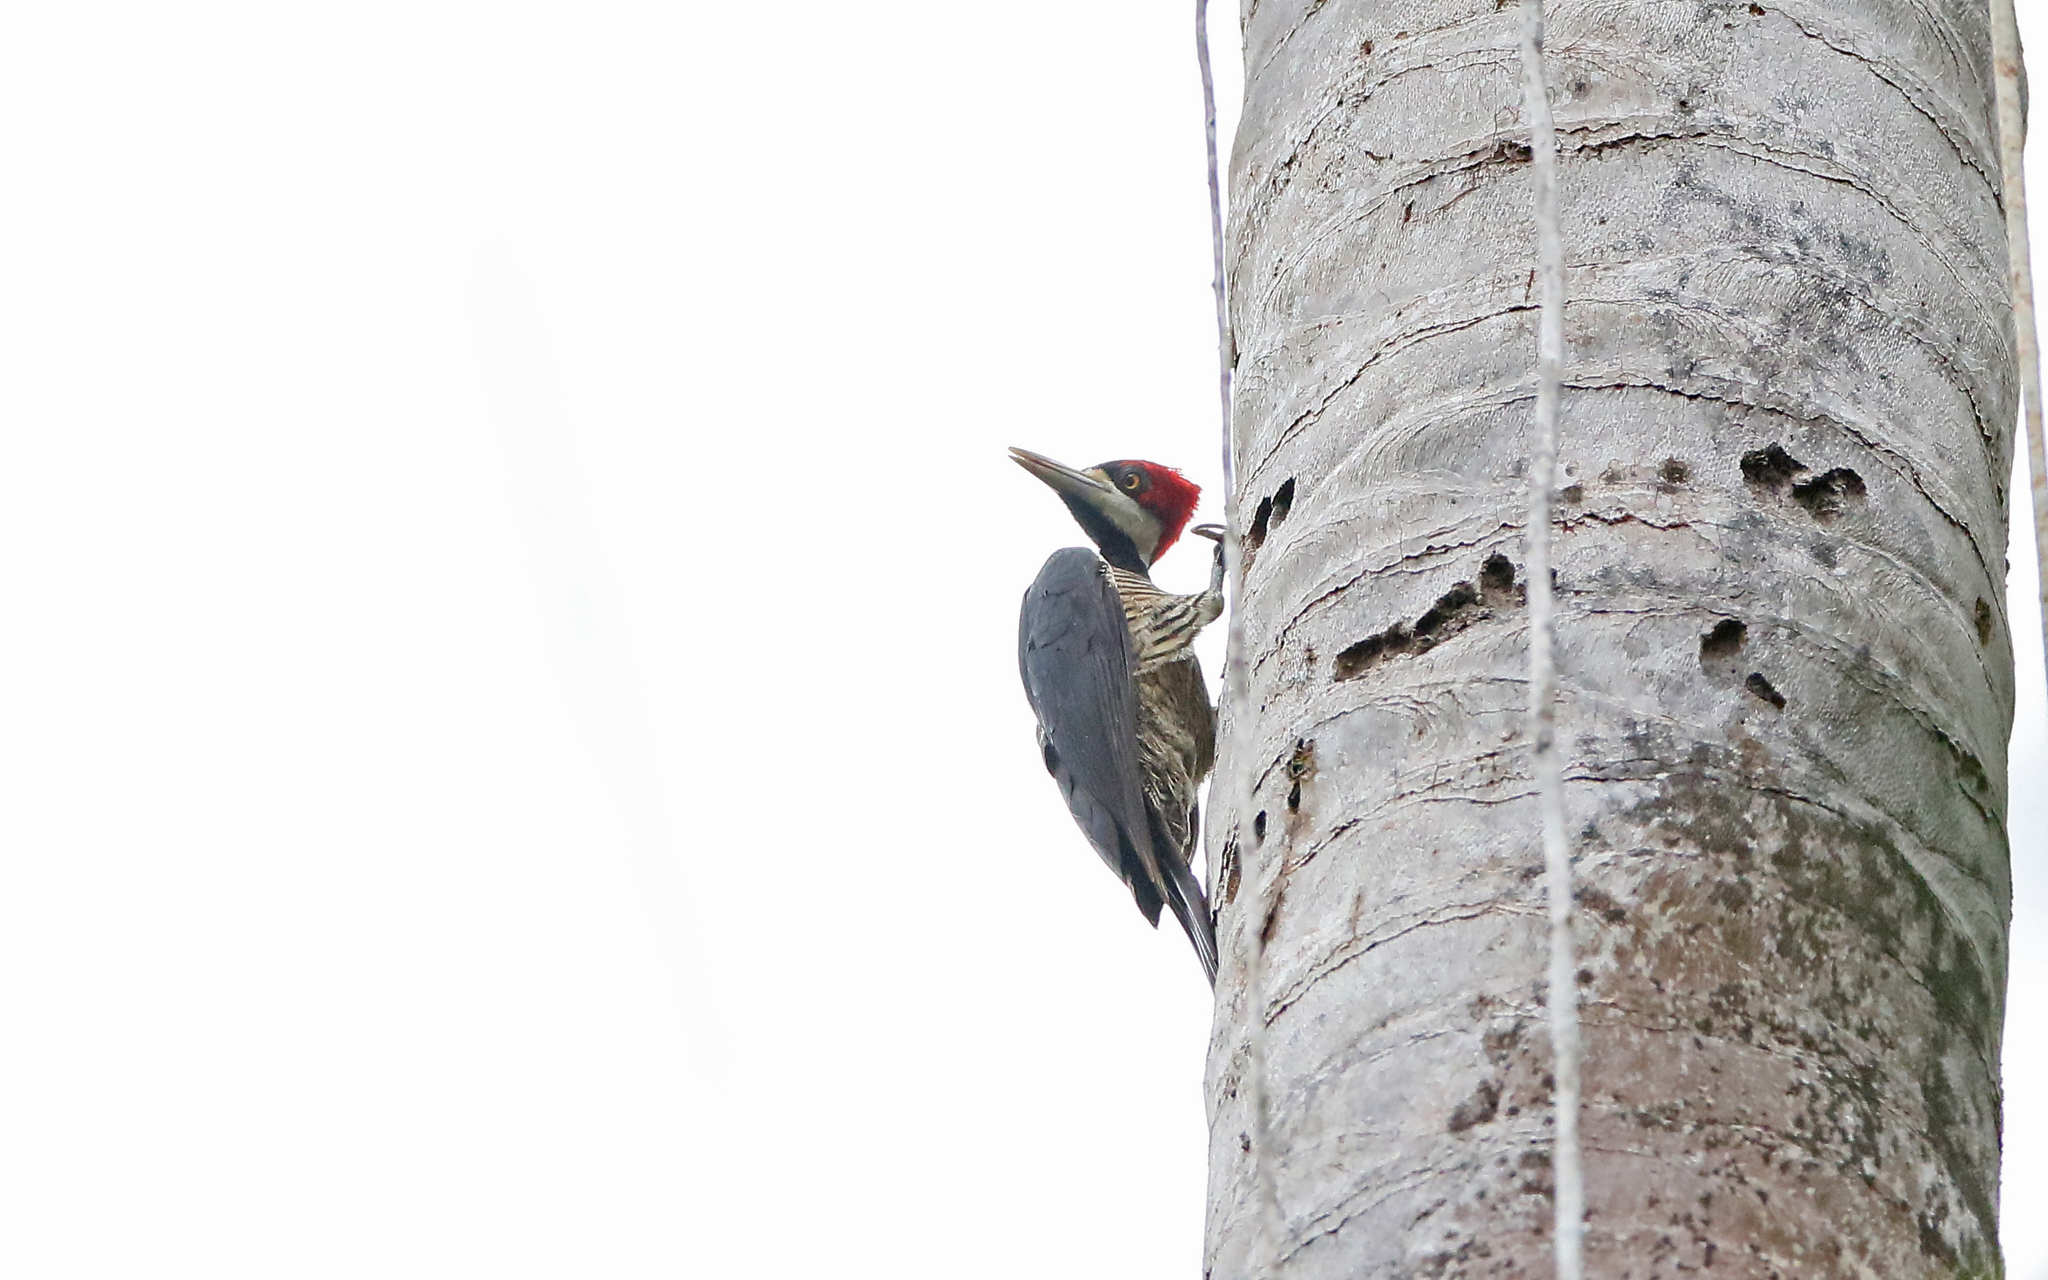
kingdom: Animalia
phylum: Chordata
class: Aves
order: Piciformes
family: Picidae
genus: Campephilus
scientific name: Campephilus melanoleucos
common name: Crimson-crested woodpecker
